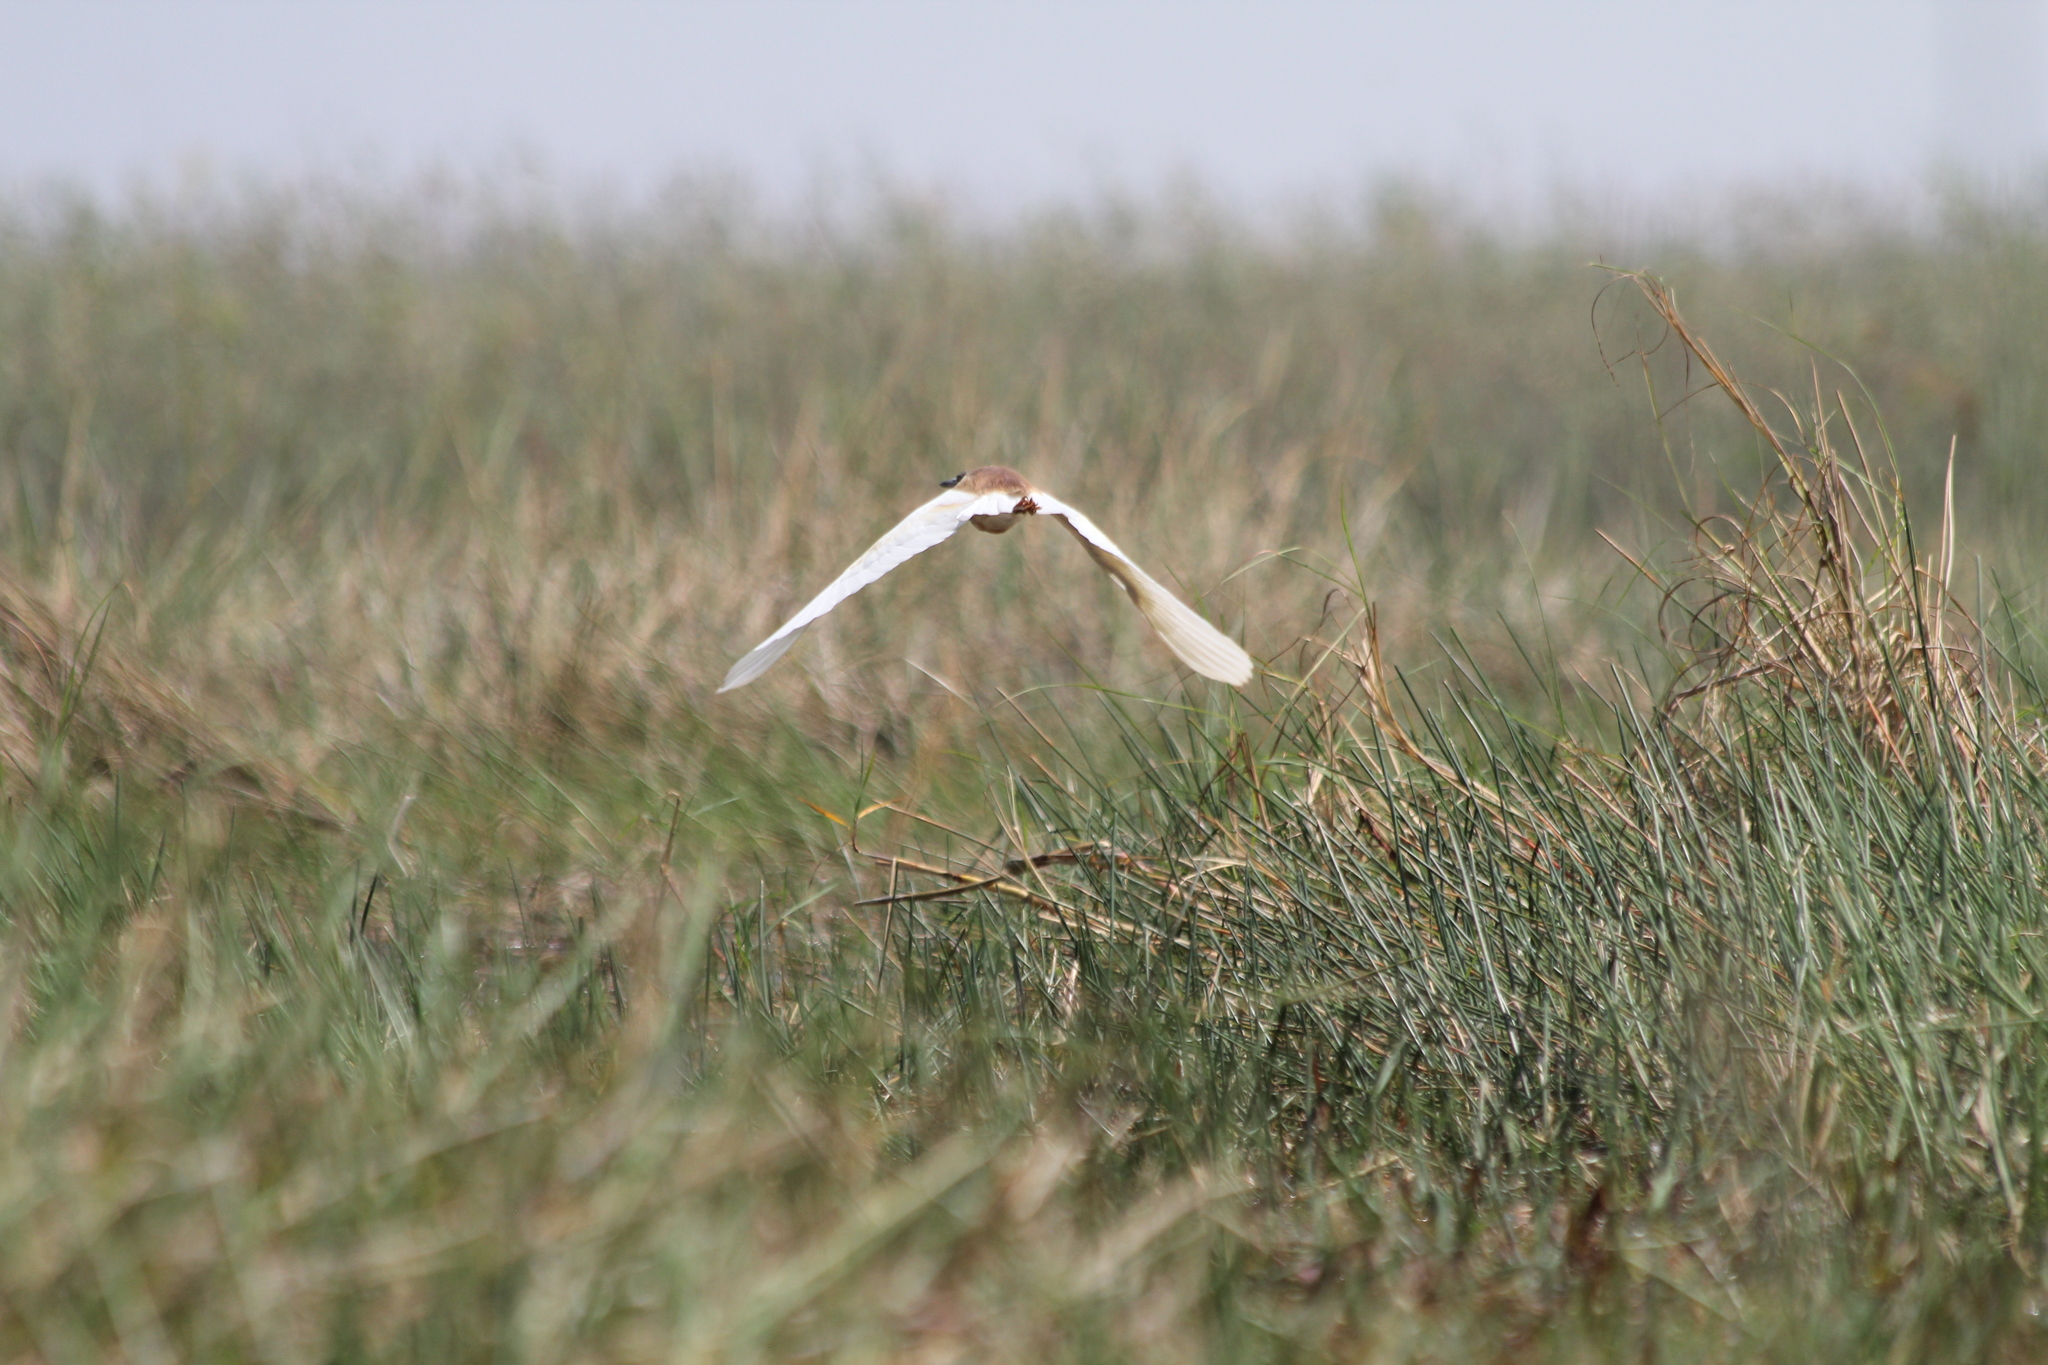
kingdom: Animalia
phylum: Chordata
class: Aves
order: Pelecaniformes
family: Ardeidae
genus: Ardeola
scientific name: Ardeola ralloides
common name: Squacco heron
